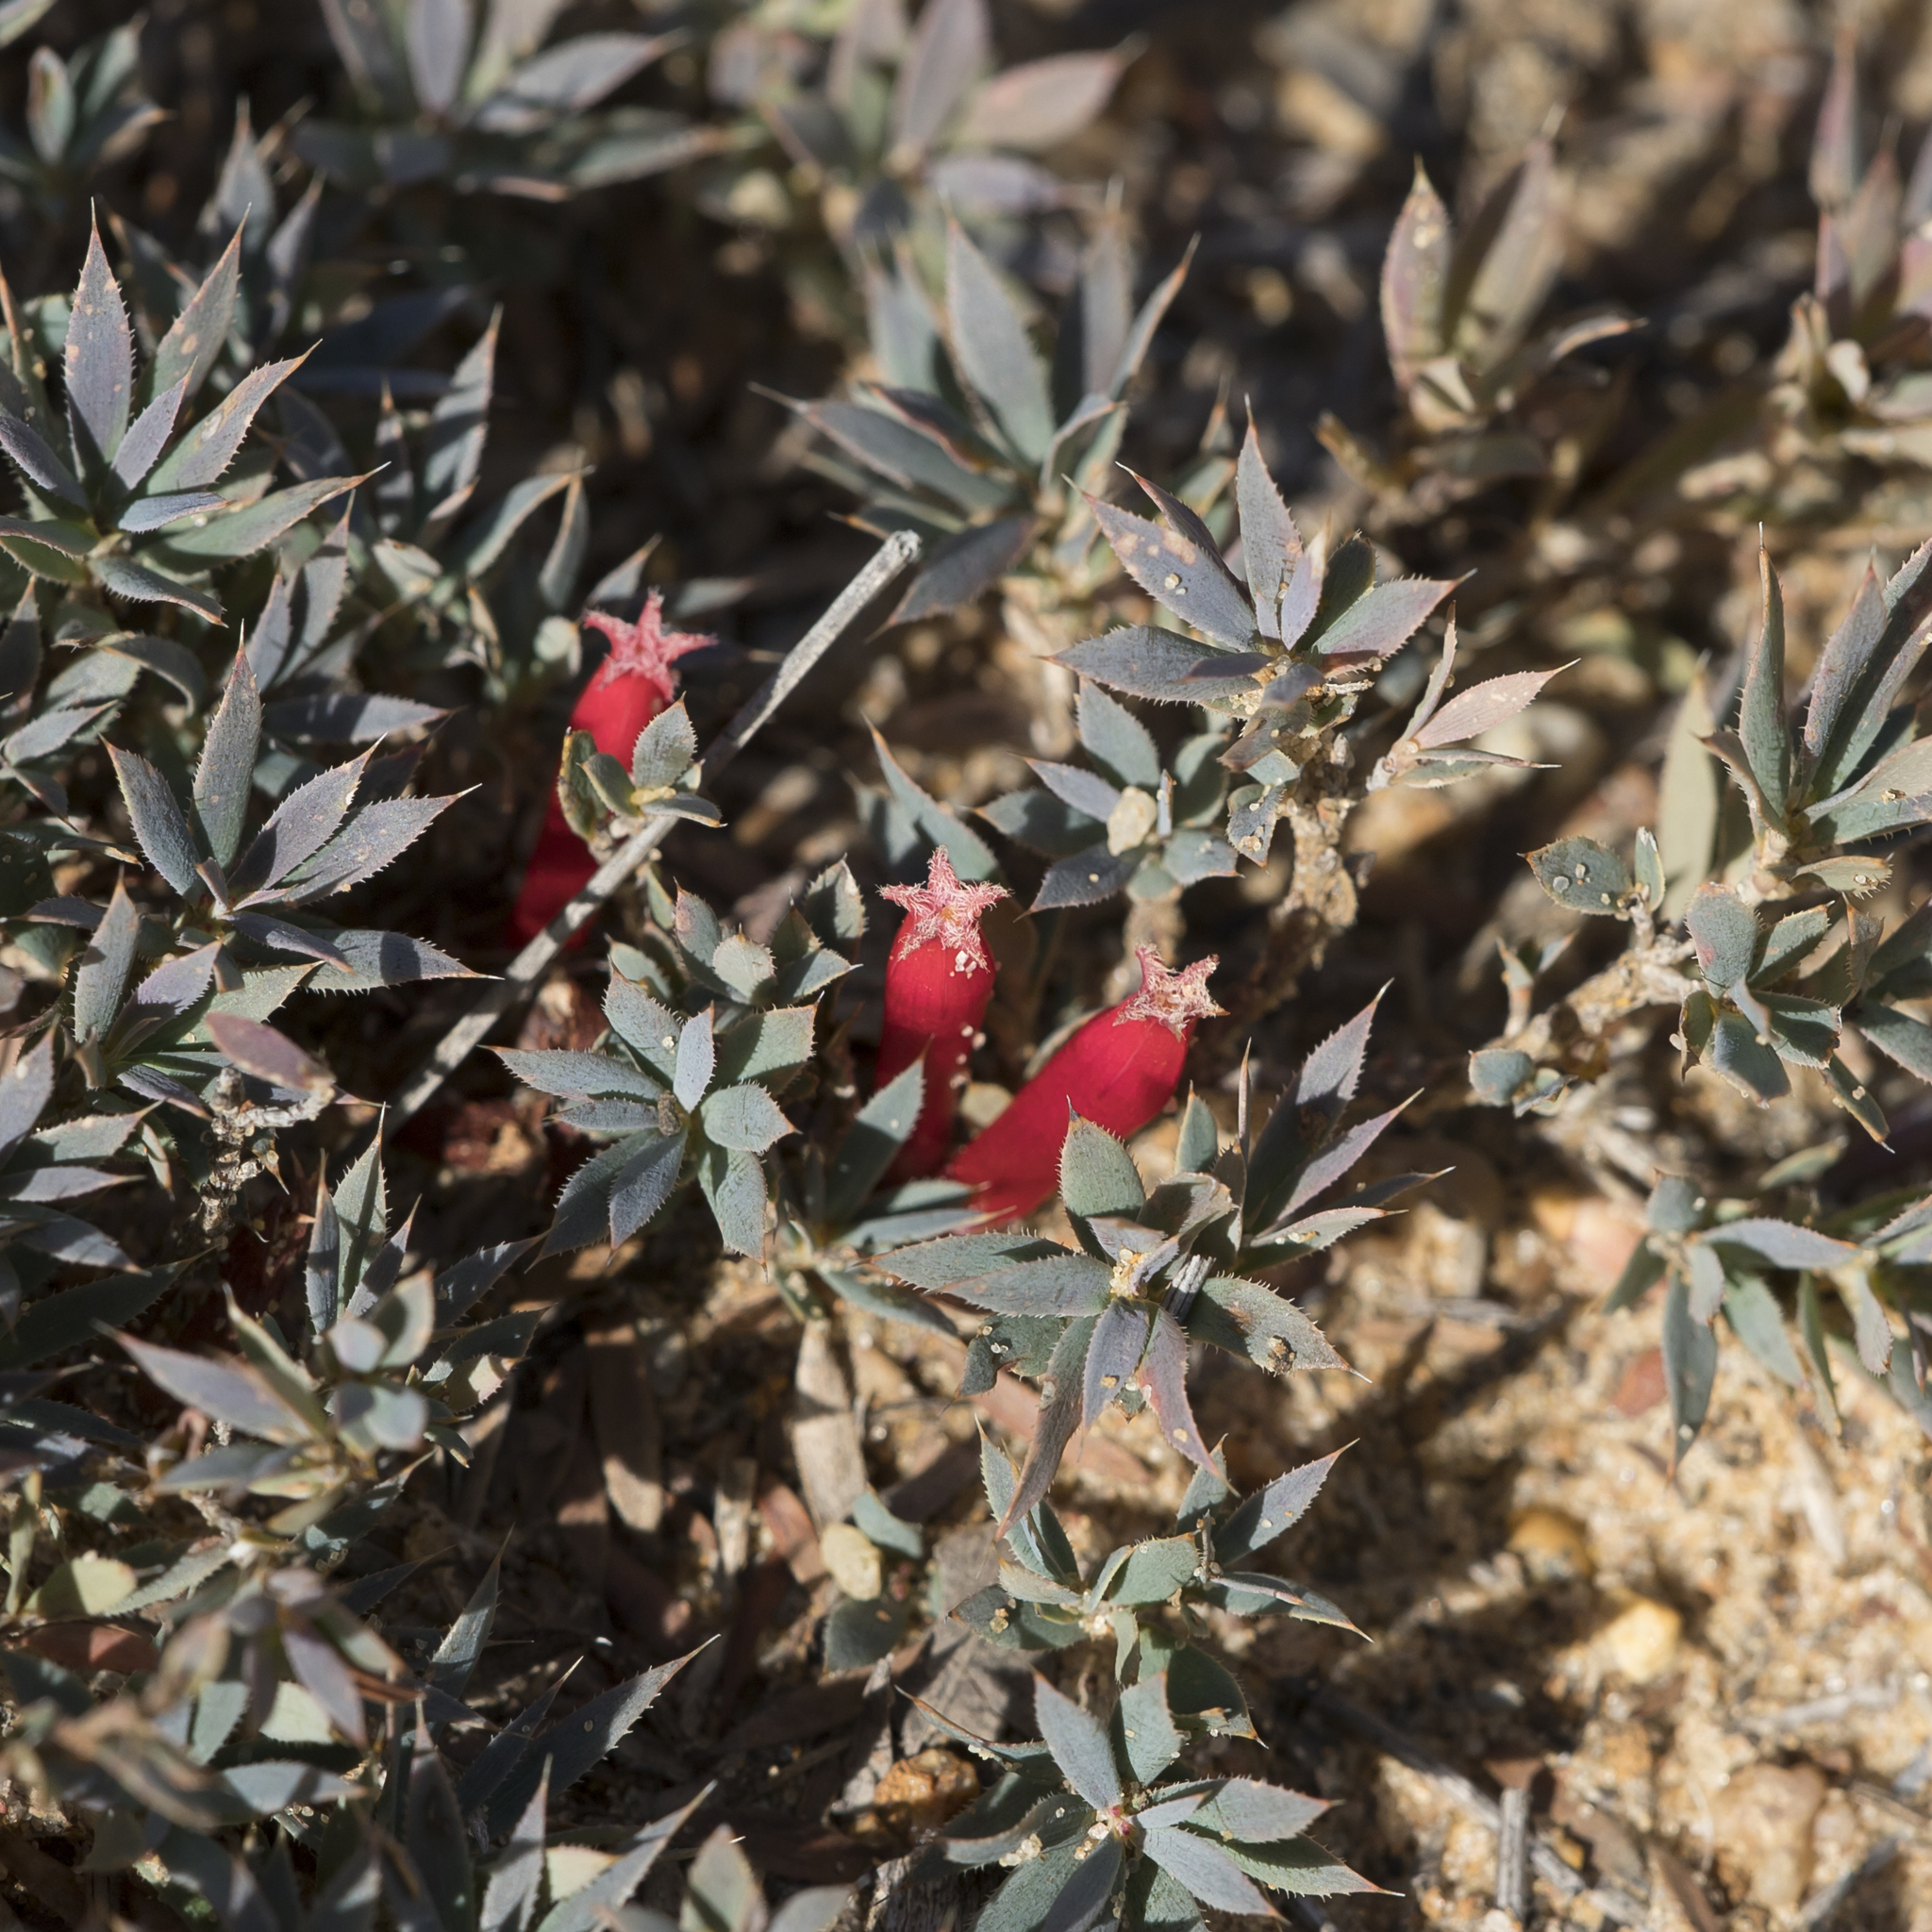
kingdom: Plantae
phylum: Tracheophyta
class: Magnoliopsida
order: Ericales
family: Ericaceae
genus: Styphelia
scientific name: Styphelia humifusa
